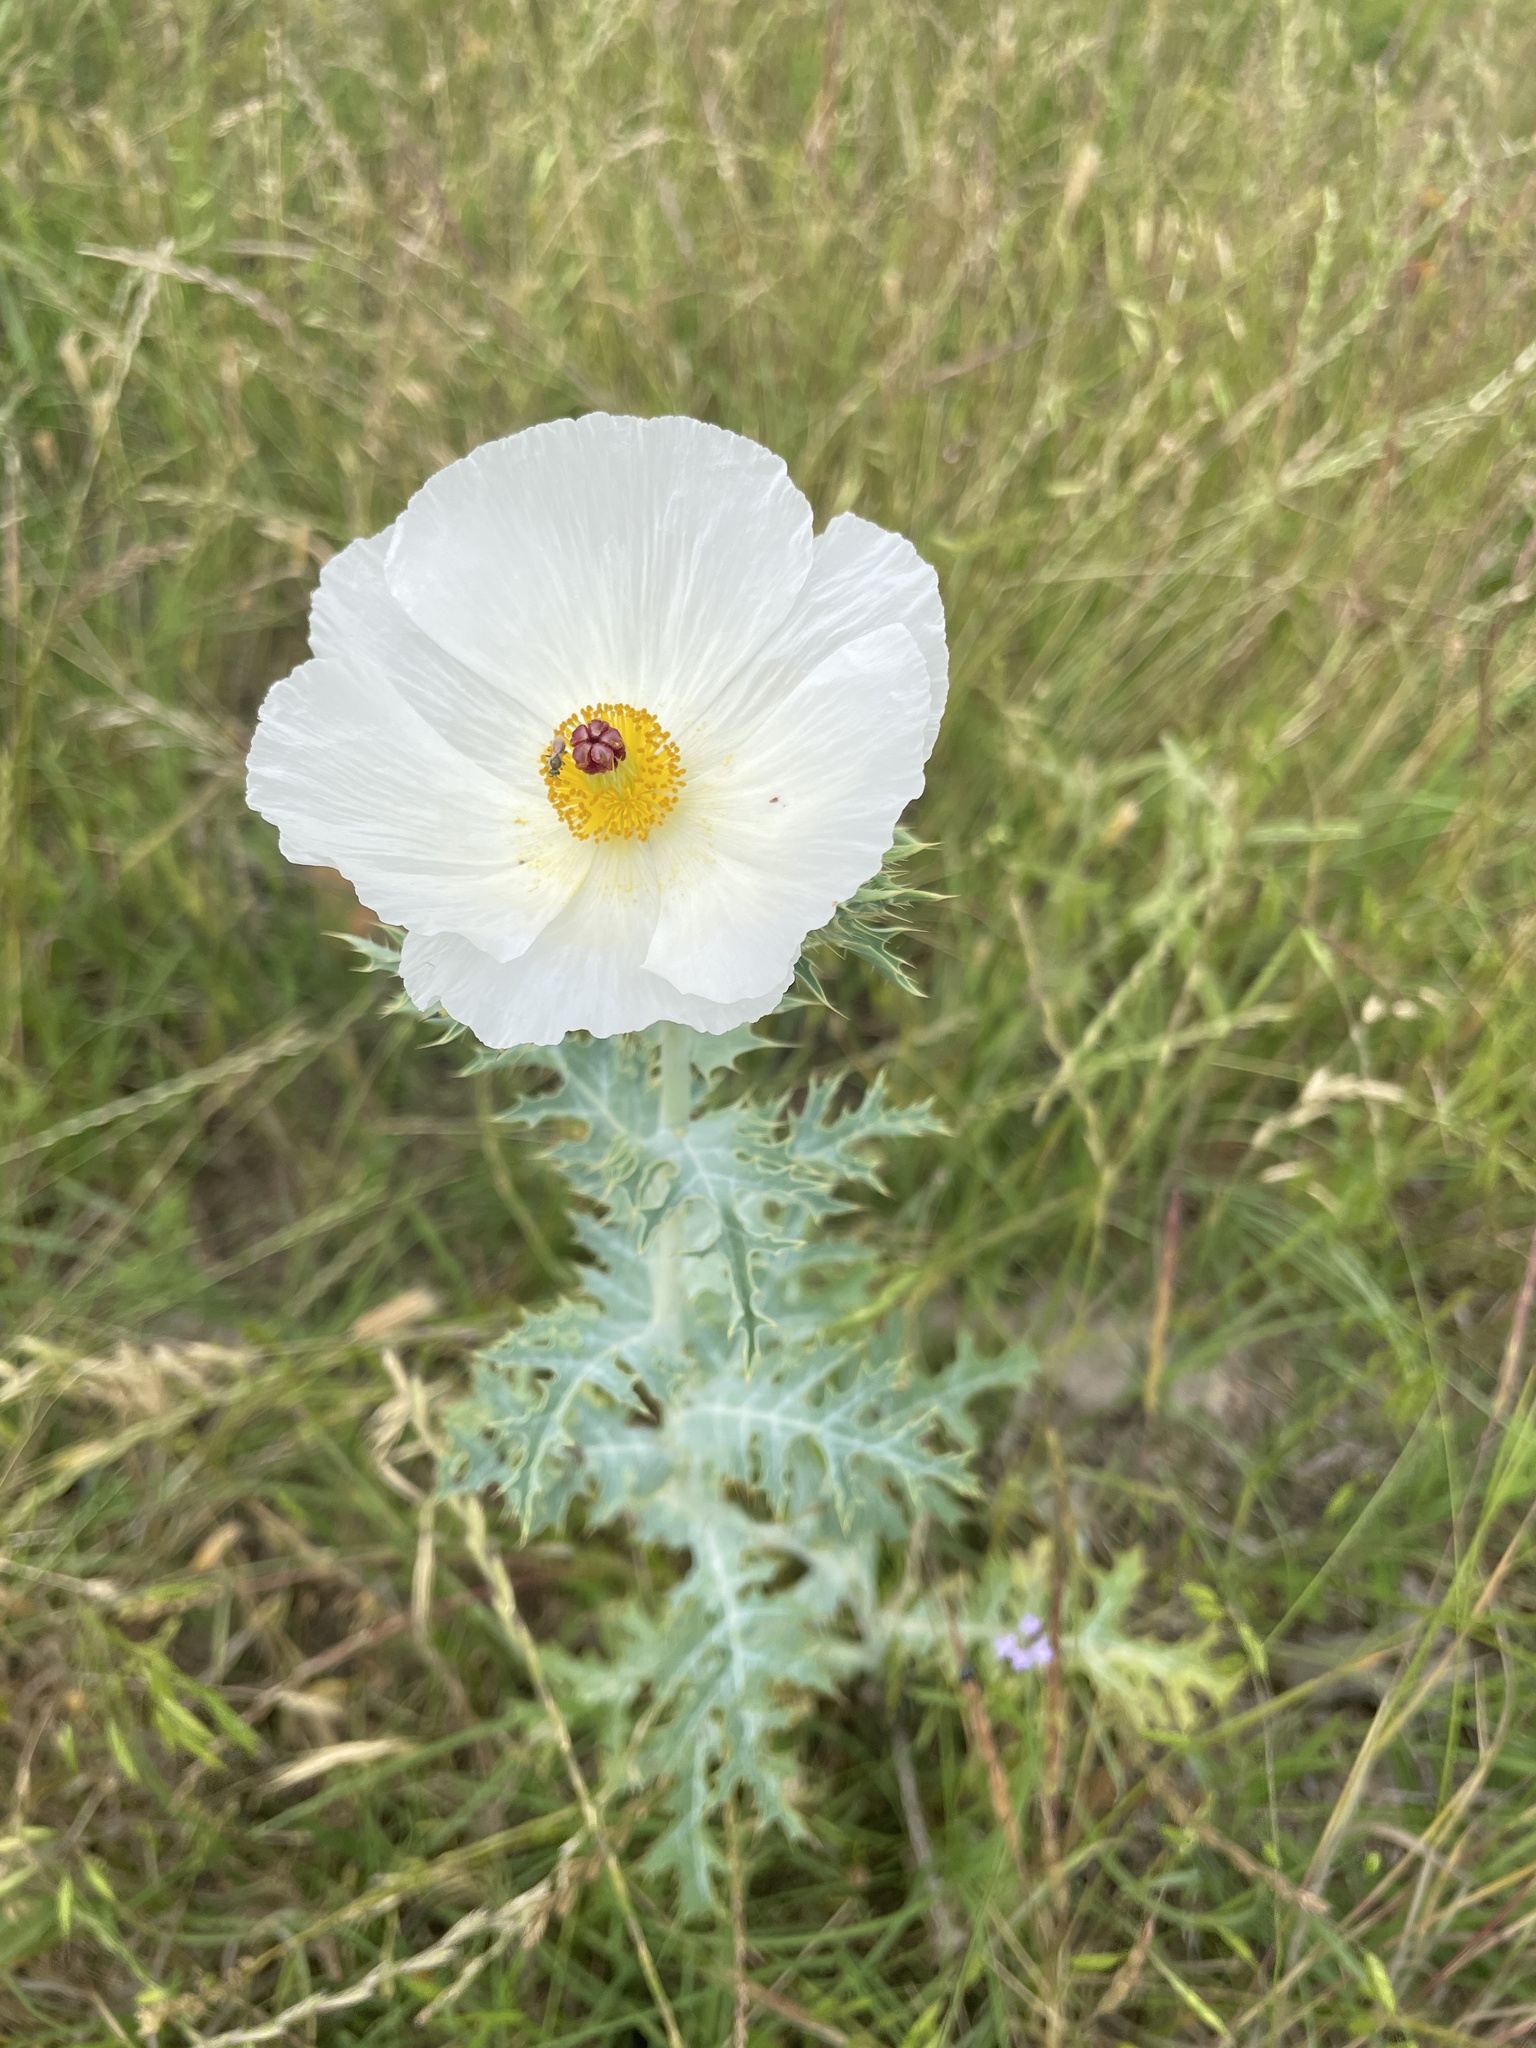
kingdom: Plantae
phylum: Tracheophyta
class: Magnoliopsida
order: Ranunculales
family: Papaveraceae
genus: Argemone
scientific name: Argemone albiflora
